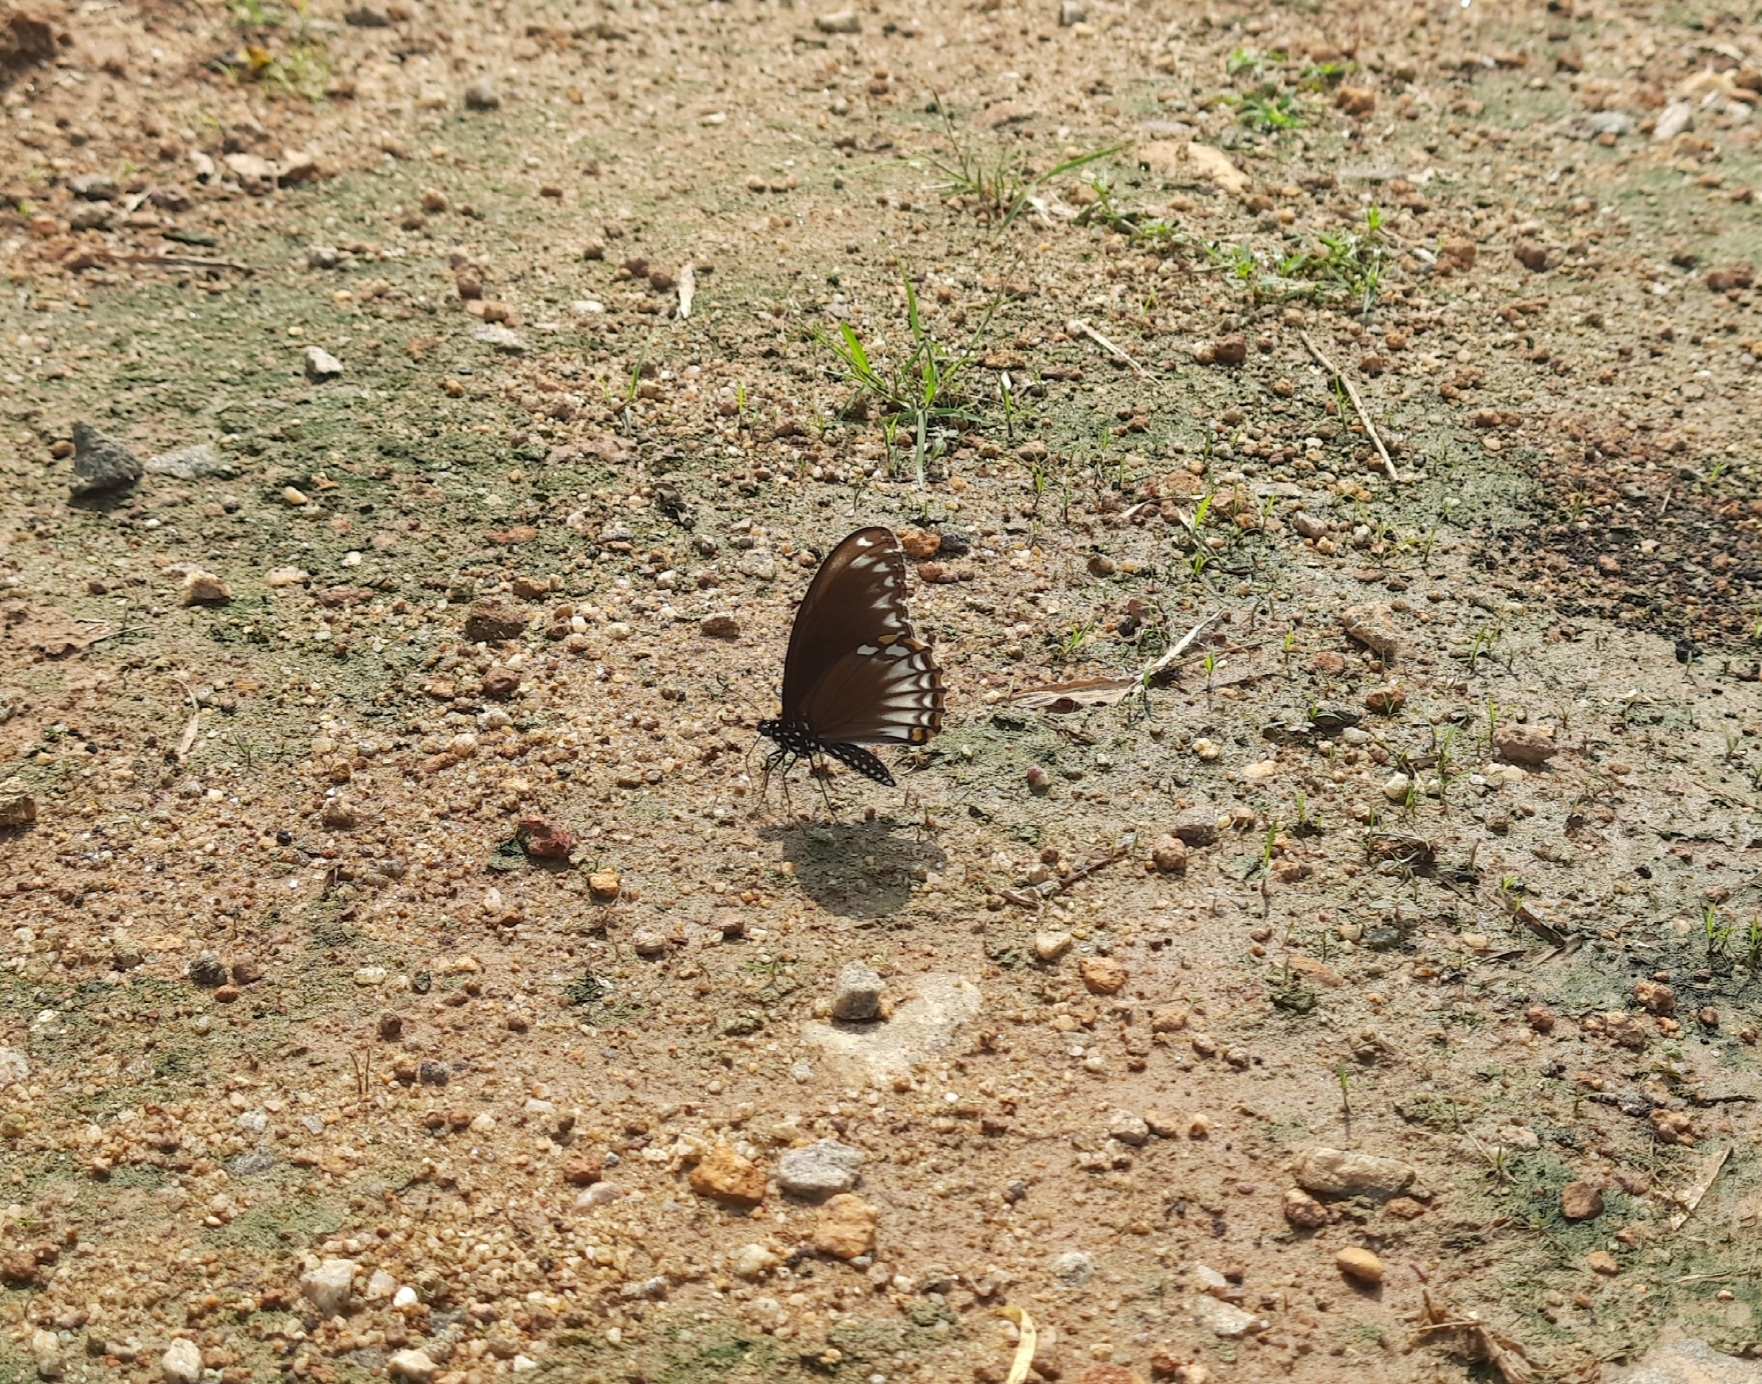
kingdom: Animalia
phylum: Arthropoda
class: Insecta
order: Lepidoptera
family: Papilionidae
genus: Chilasa
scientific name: Chilasa clytia
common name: Common mime
